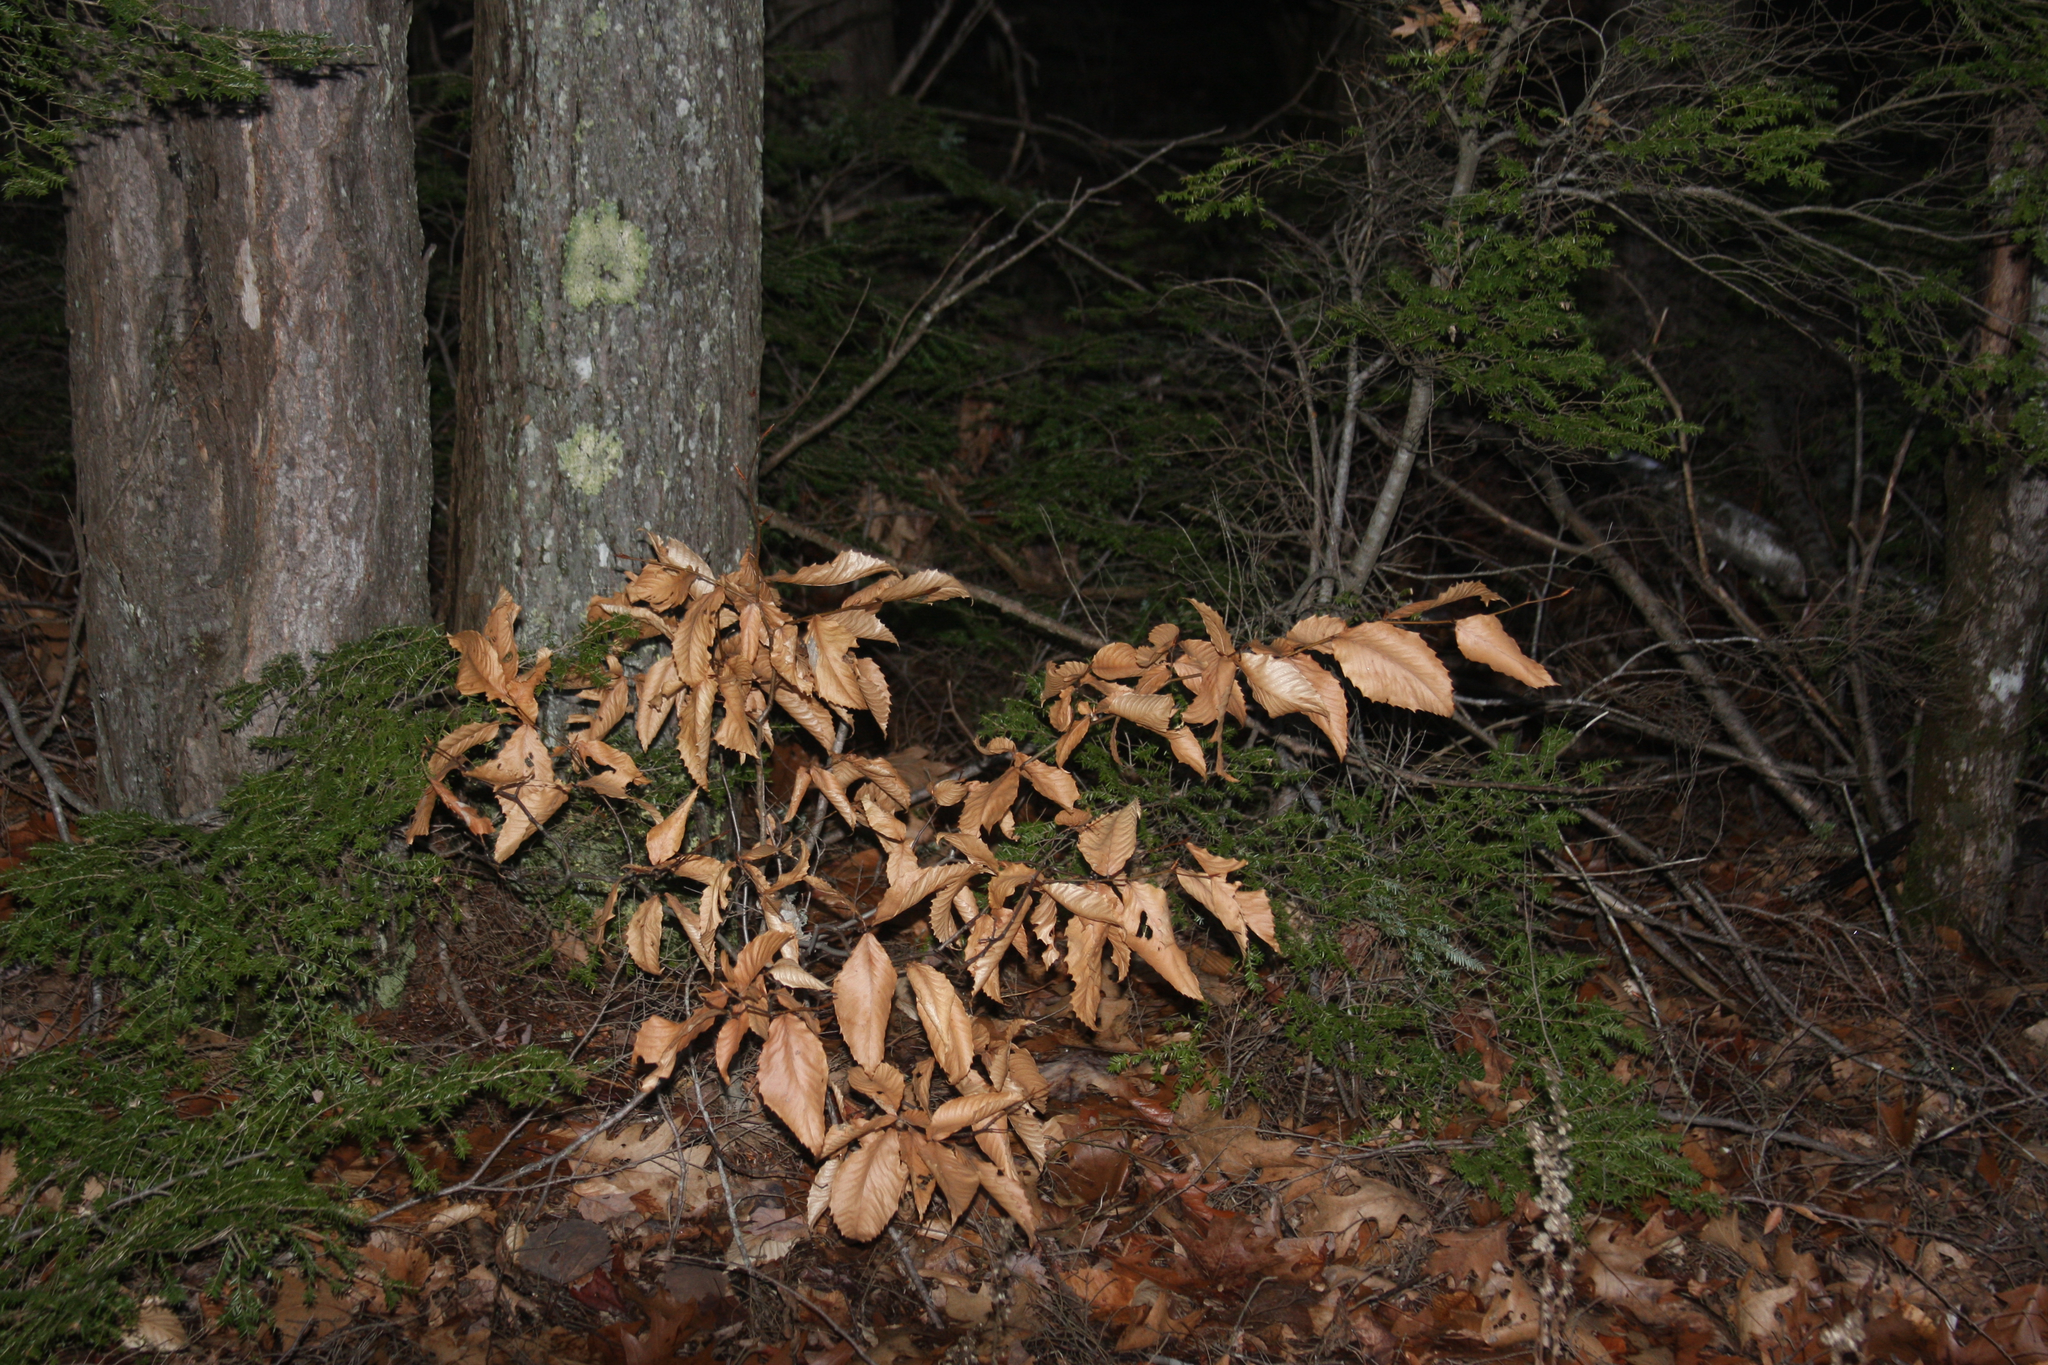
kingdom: Plantae
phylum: Tracheophyta
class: Magnoliopsida
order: Fagales
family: Fagaceae
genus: Fagus
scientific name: Fagus grandifolia
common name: American beech
